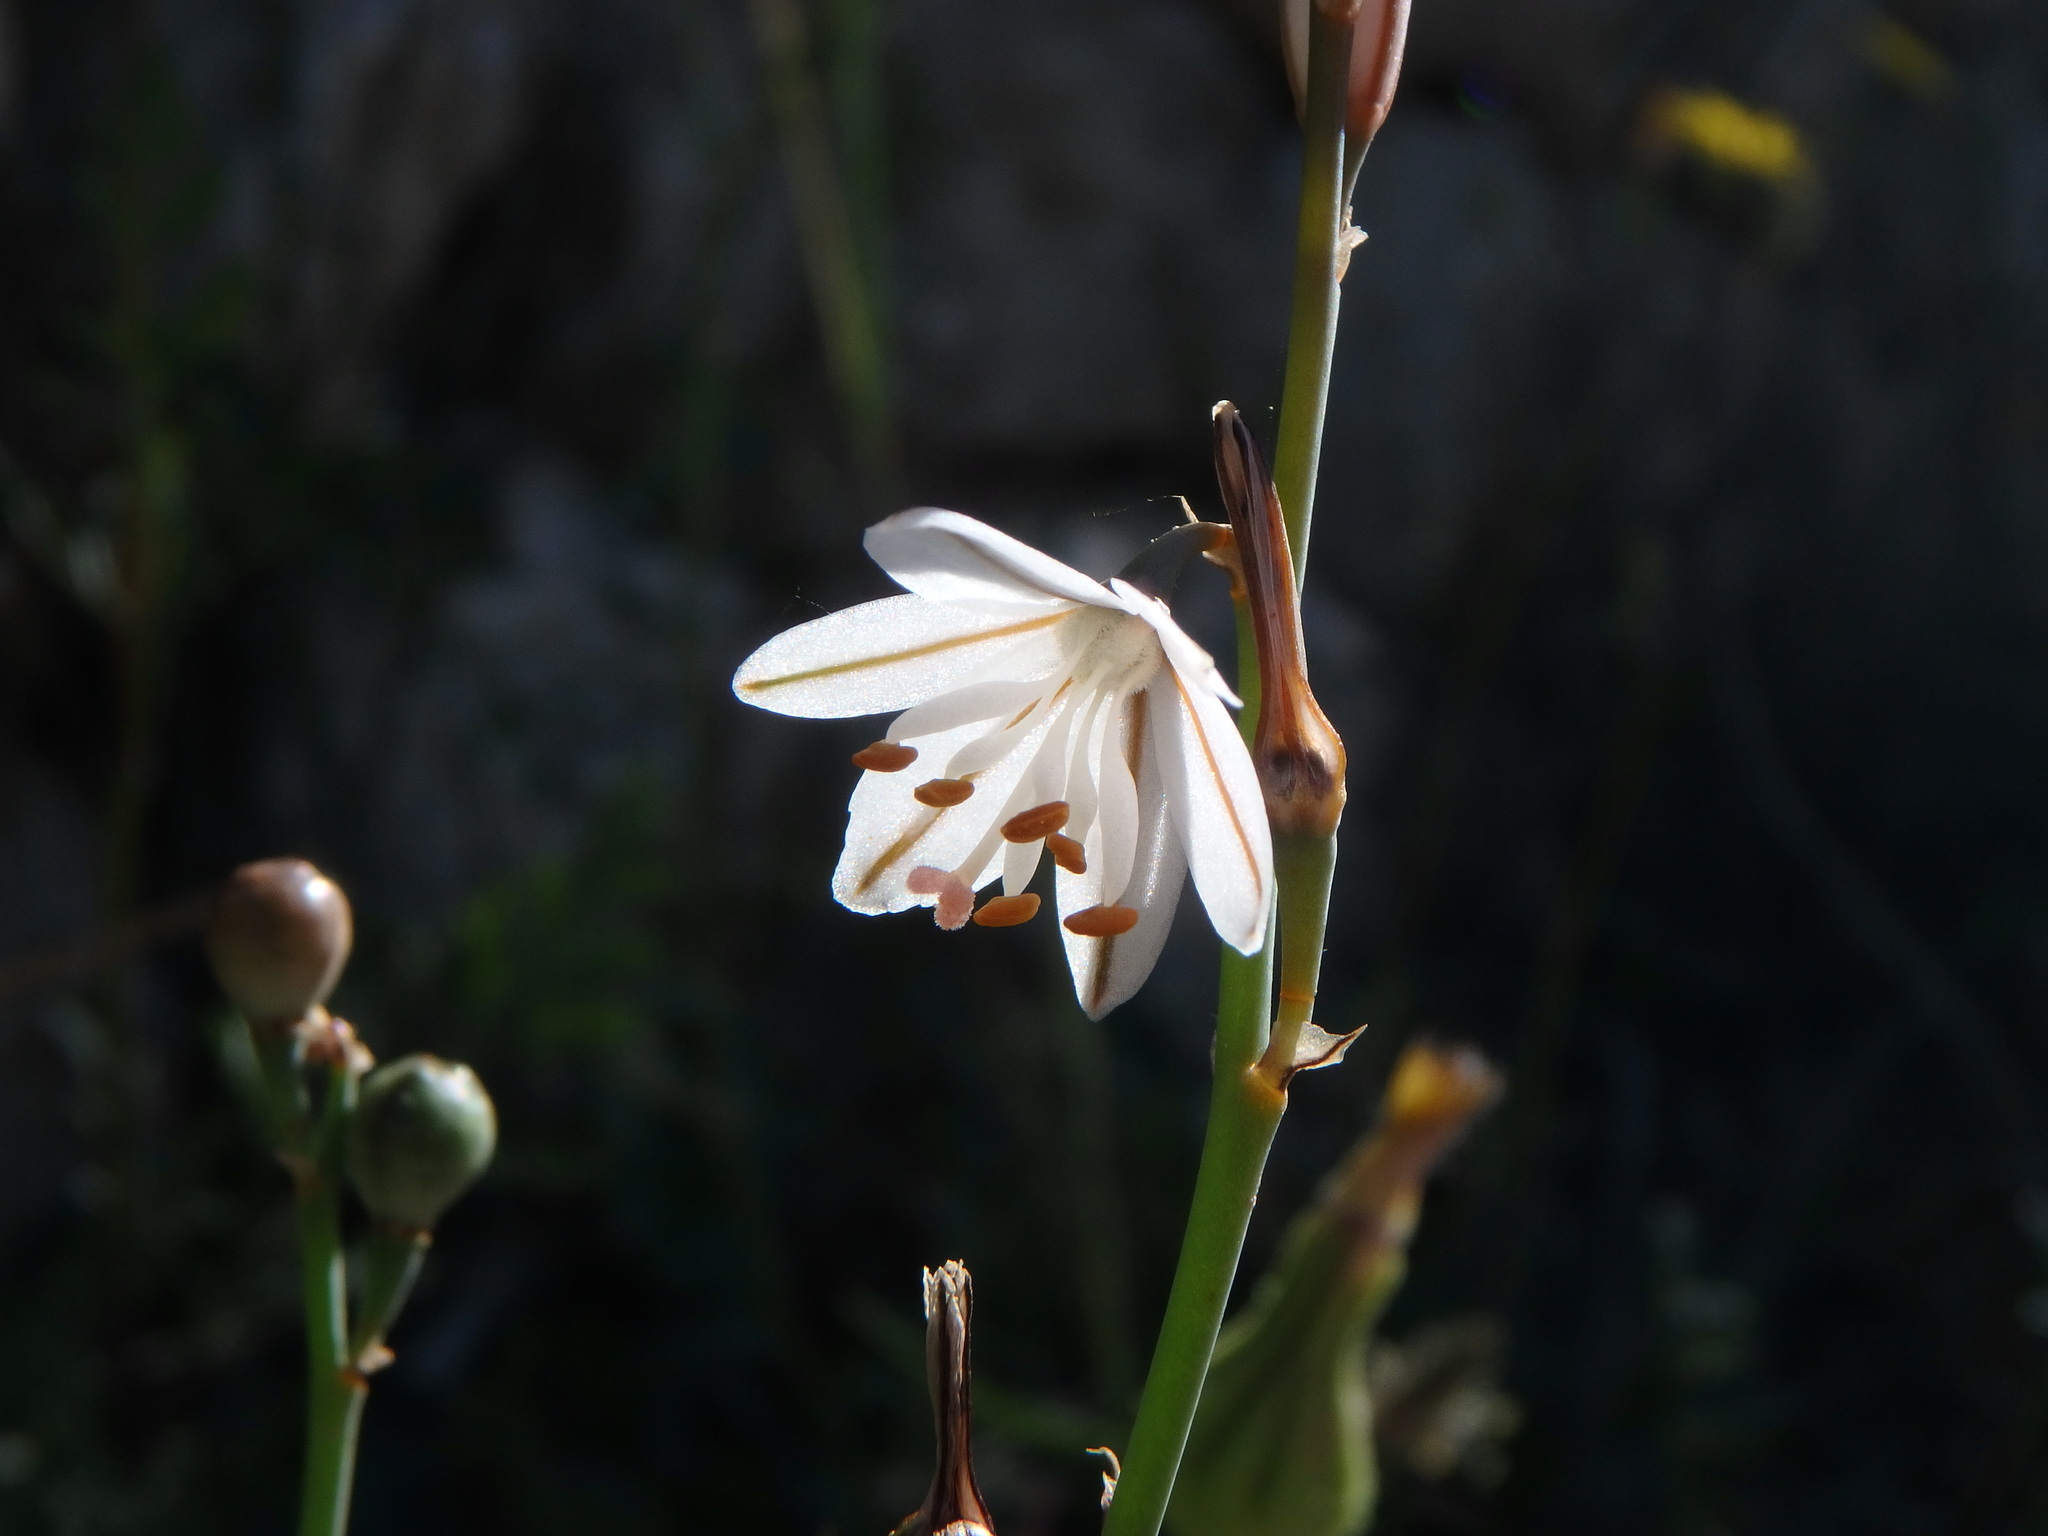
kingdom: Plantae
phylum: Tracheophyta
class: Liliopsida
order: Asparagales
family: Asphodelaceae
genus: Asphodelus
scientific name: Asphodelus fistulosus
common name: Onionweed
